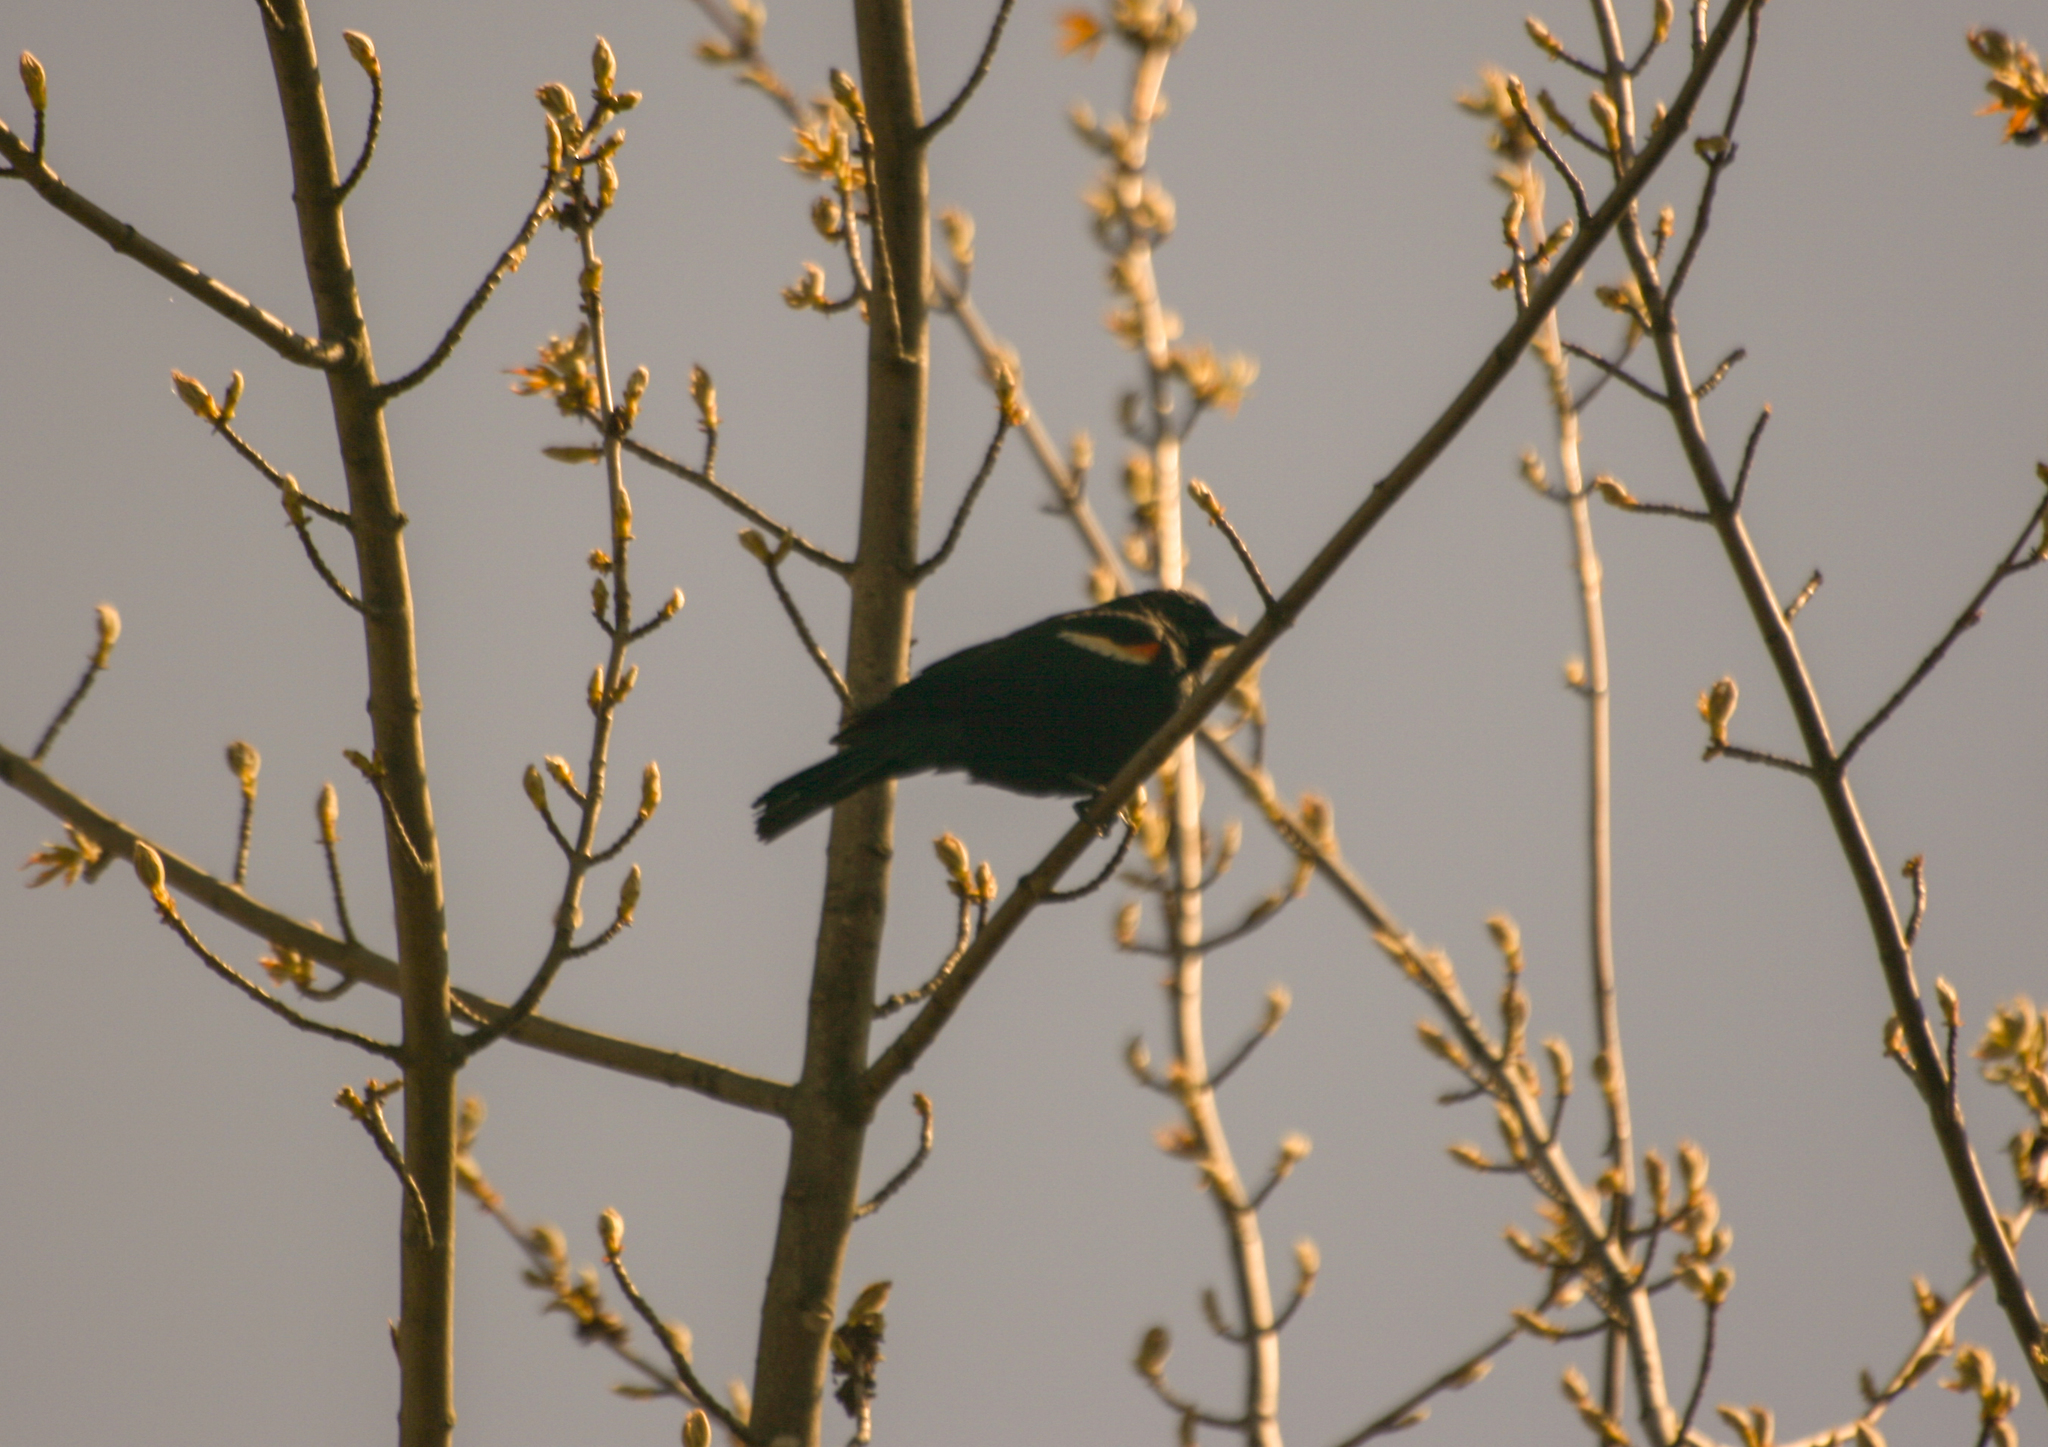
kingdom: Animalia
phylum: Chordata
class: Aves
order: Passeriformes
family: Icteridae
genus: Agelaius
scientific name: Agelaius phoeniceus
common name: Red-winged blackbird
